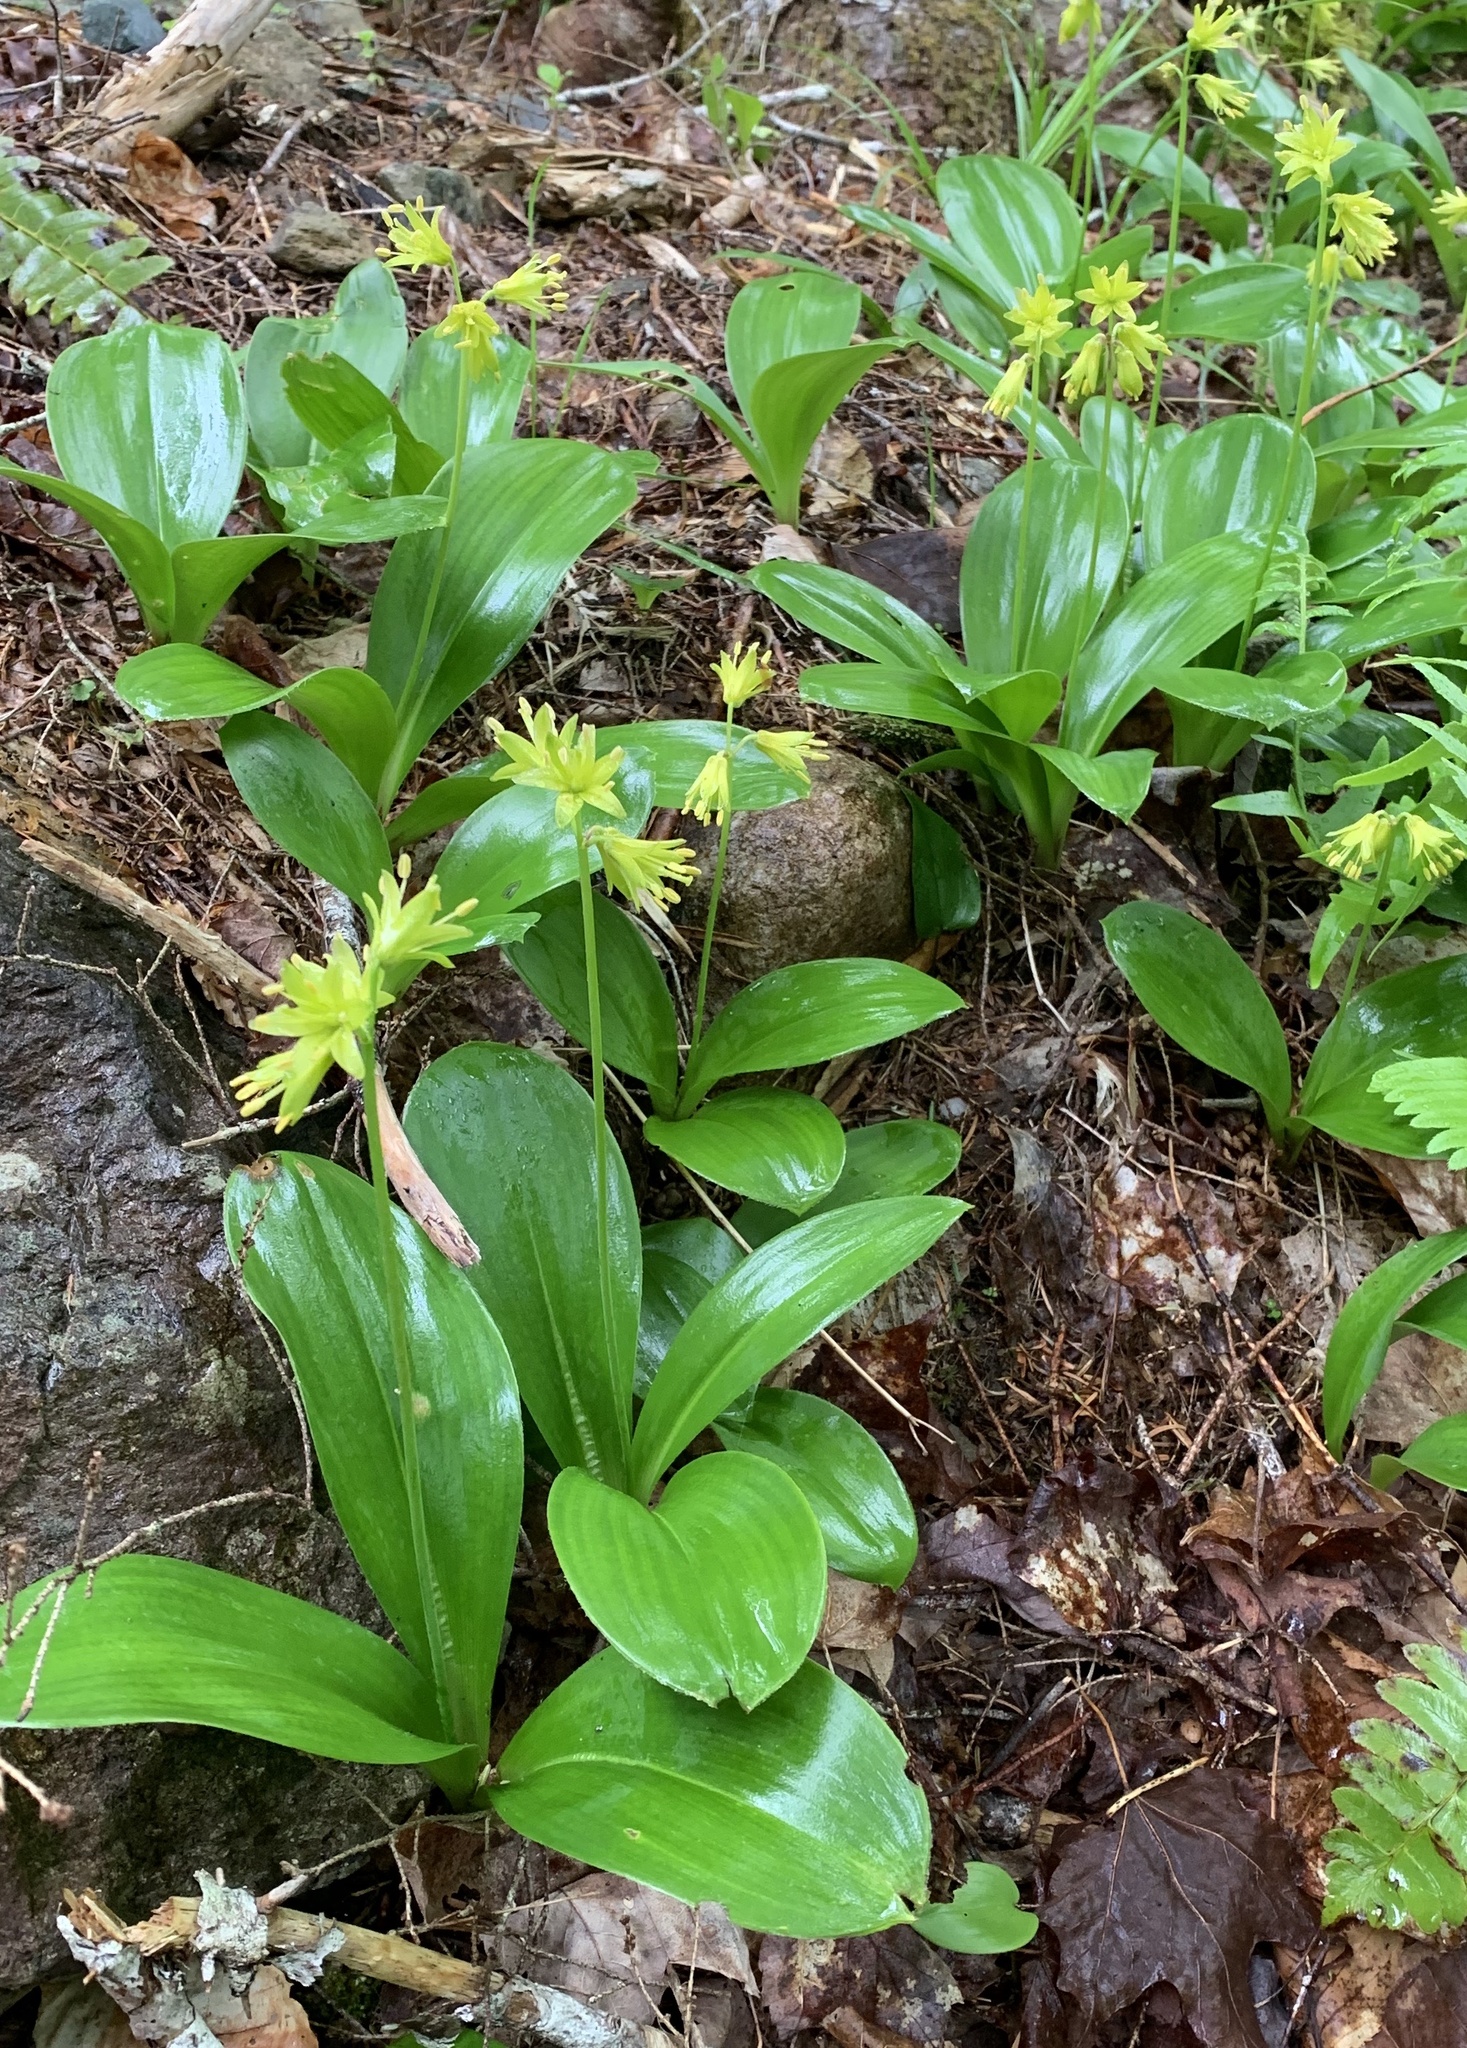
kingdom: Plantae
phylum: Tracheophyta
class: Liliopsida
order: Liliales
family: Liliaceae
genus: Clintonia
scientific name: Clintonia borealis
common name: Yellow clintonia
